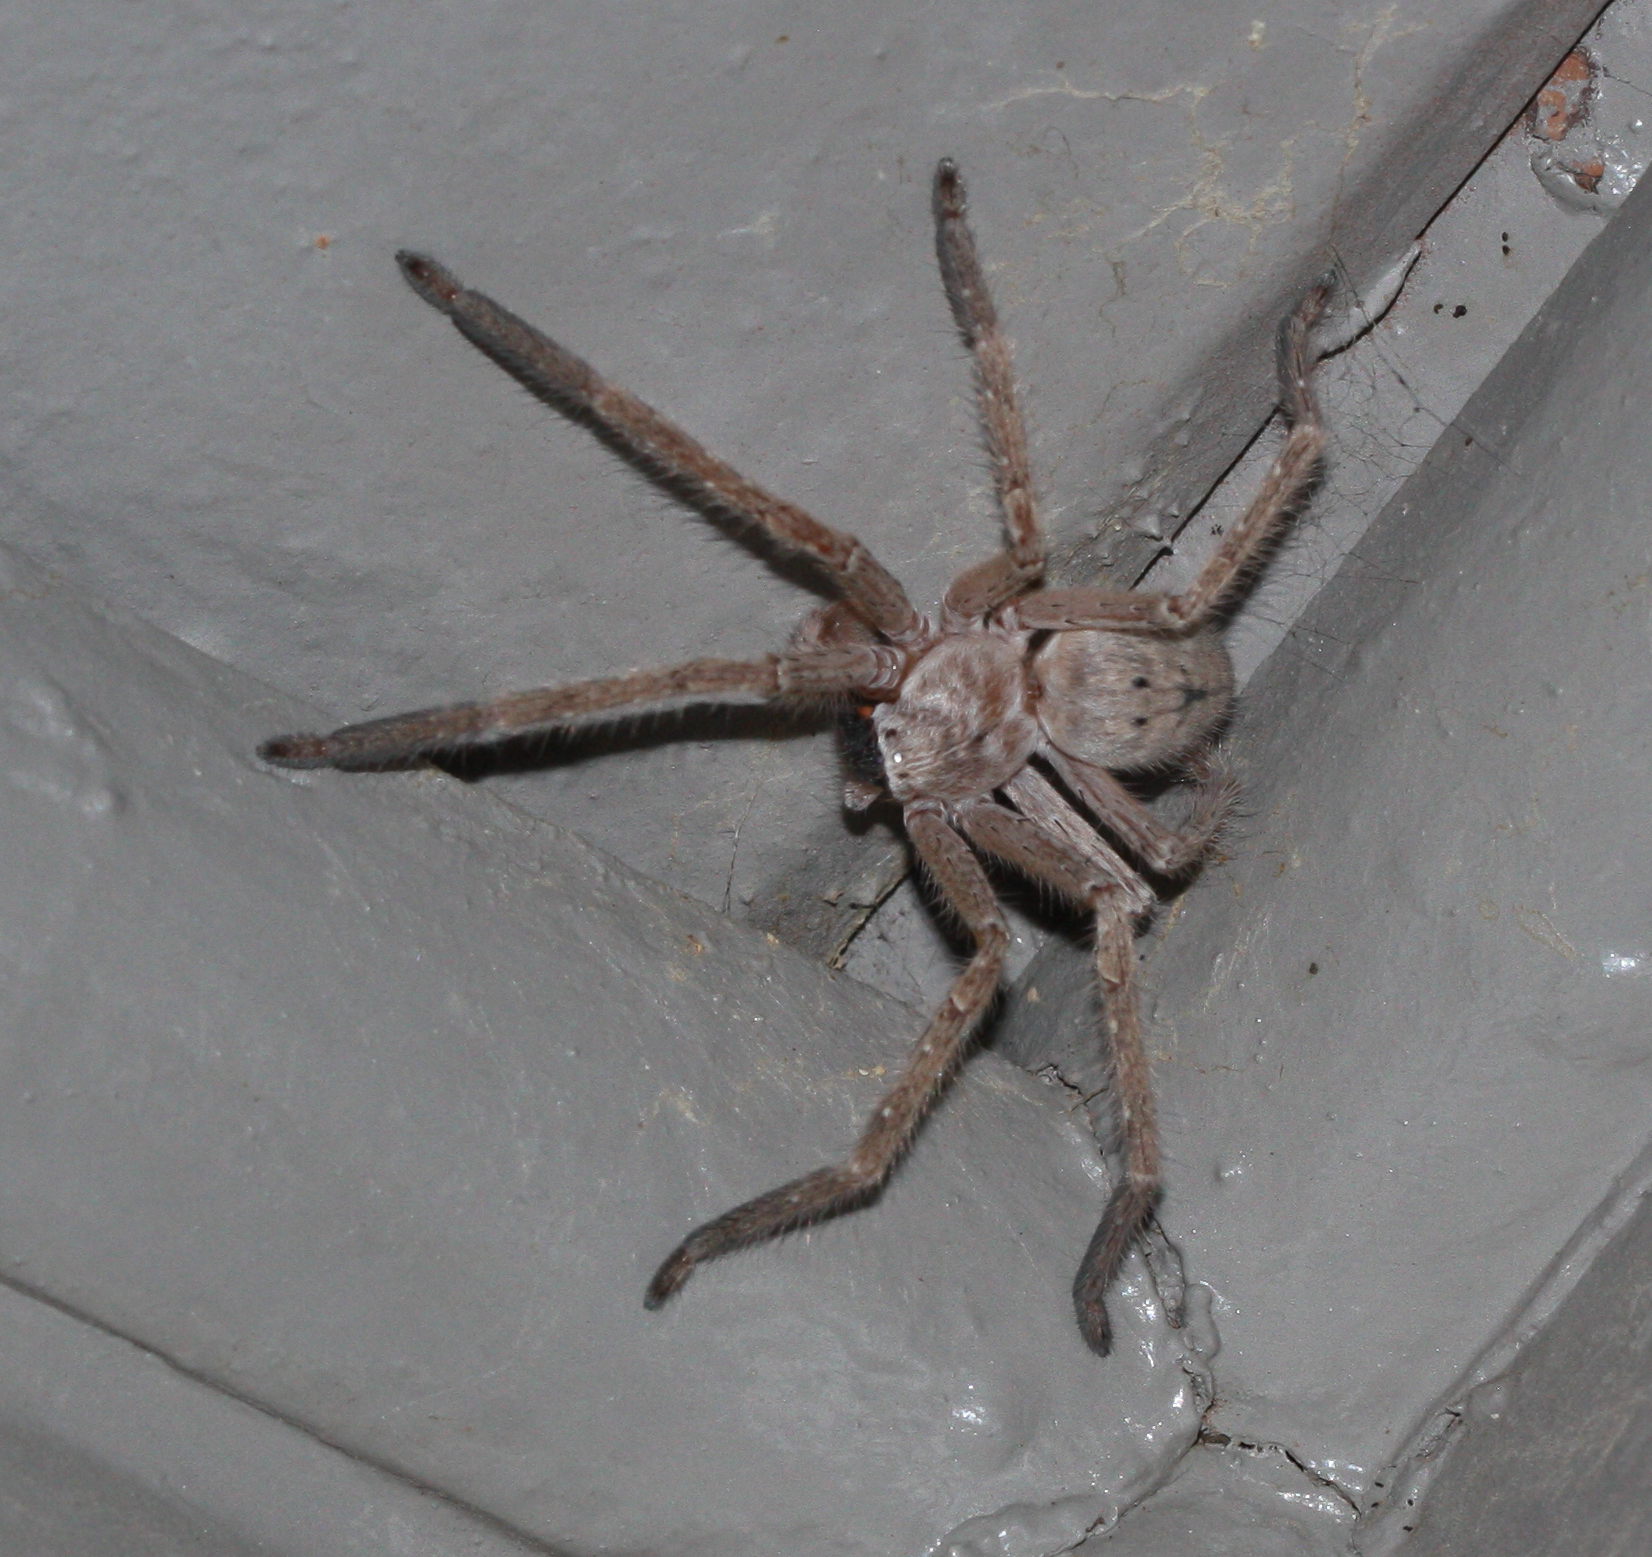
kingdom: Animalia
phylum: Arthropoda
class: Arachnida
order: Araneae
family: Sparassidae
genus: Olios
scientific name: Olios giganteus
